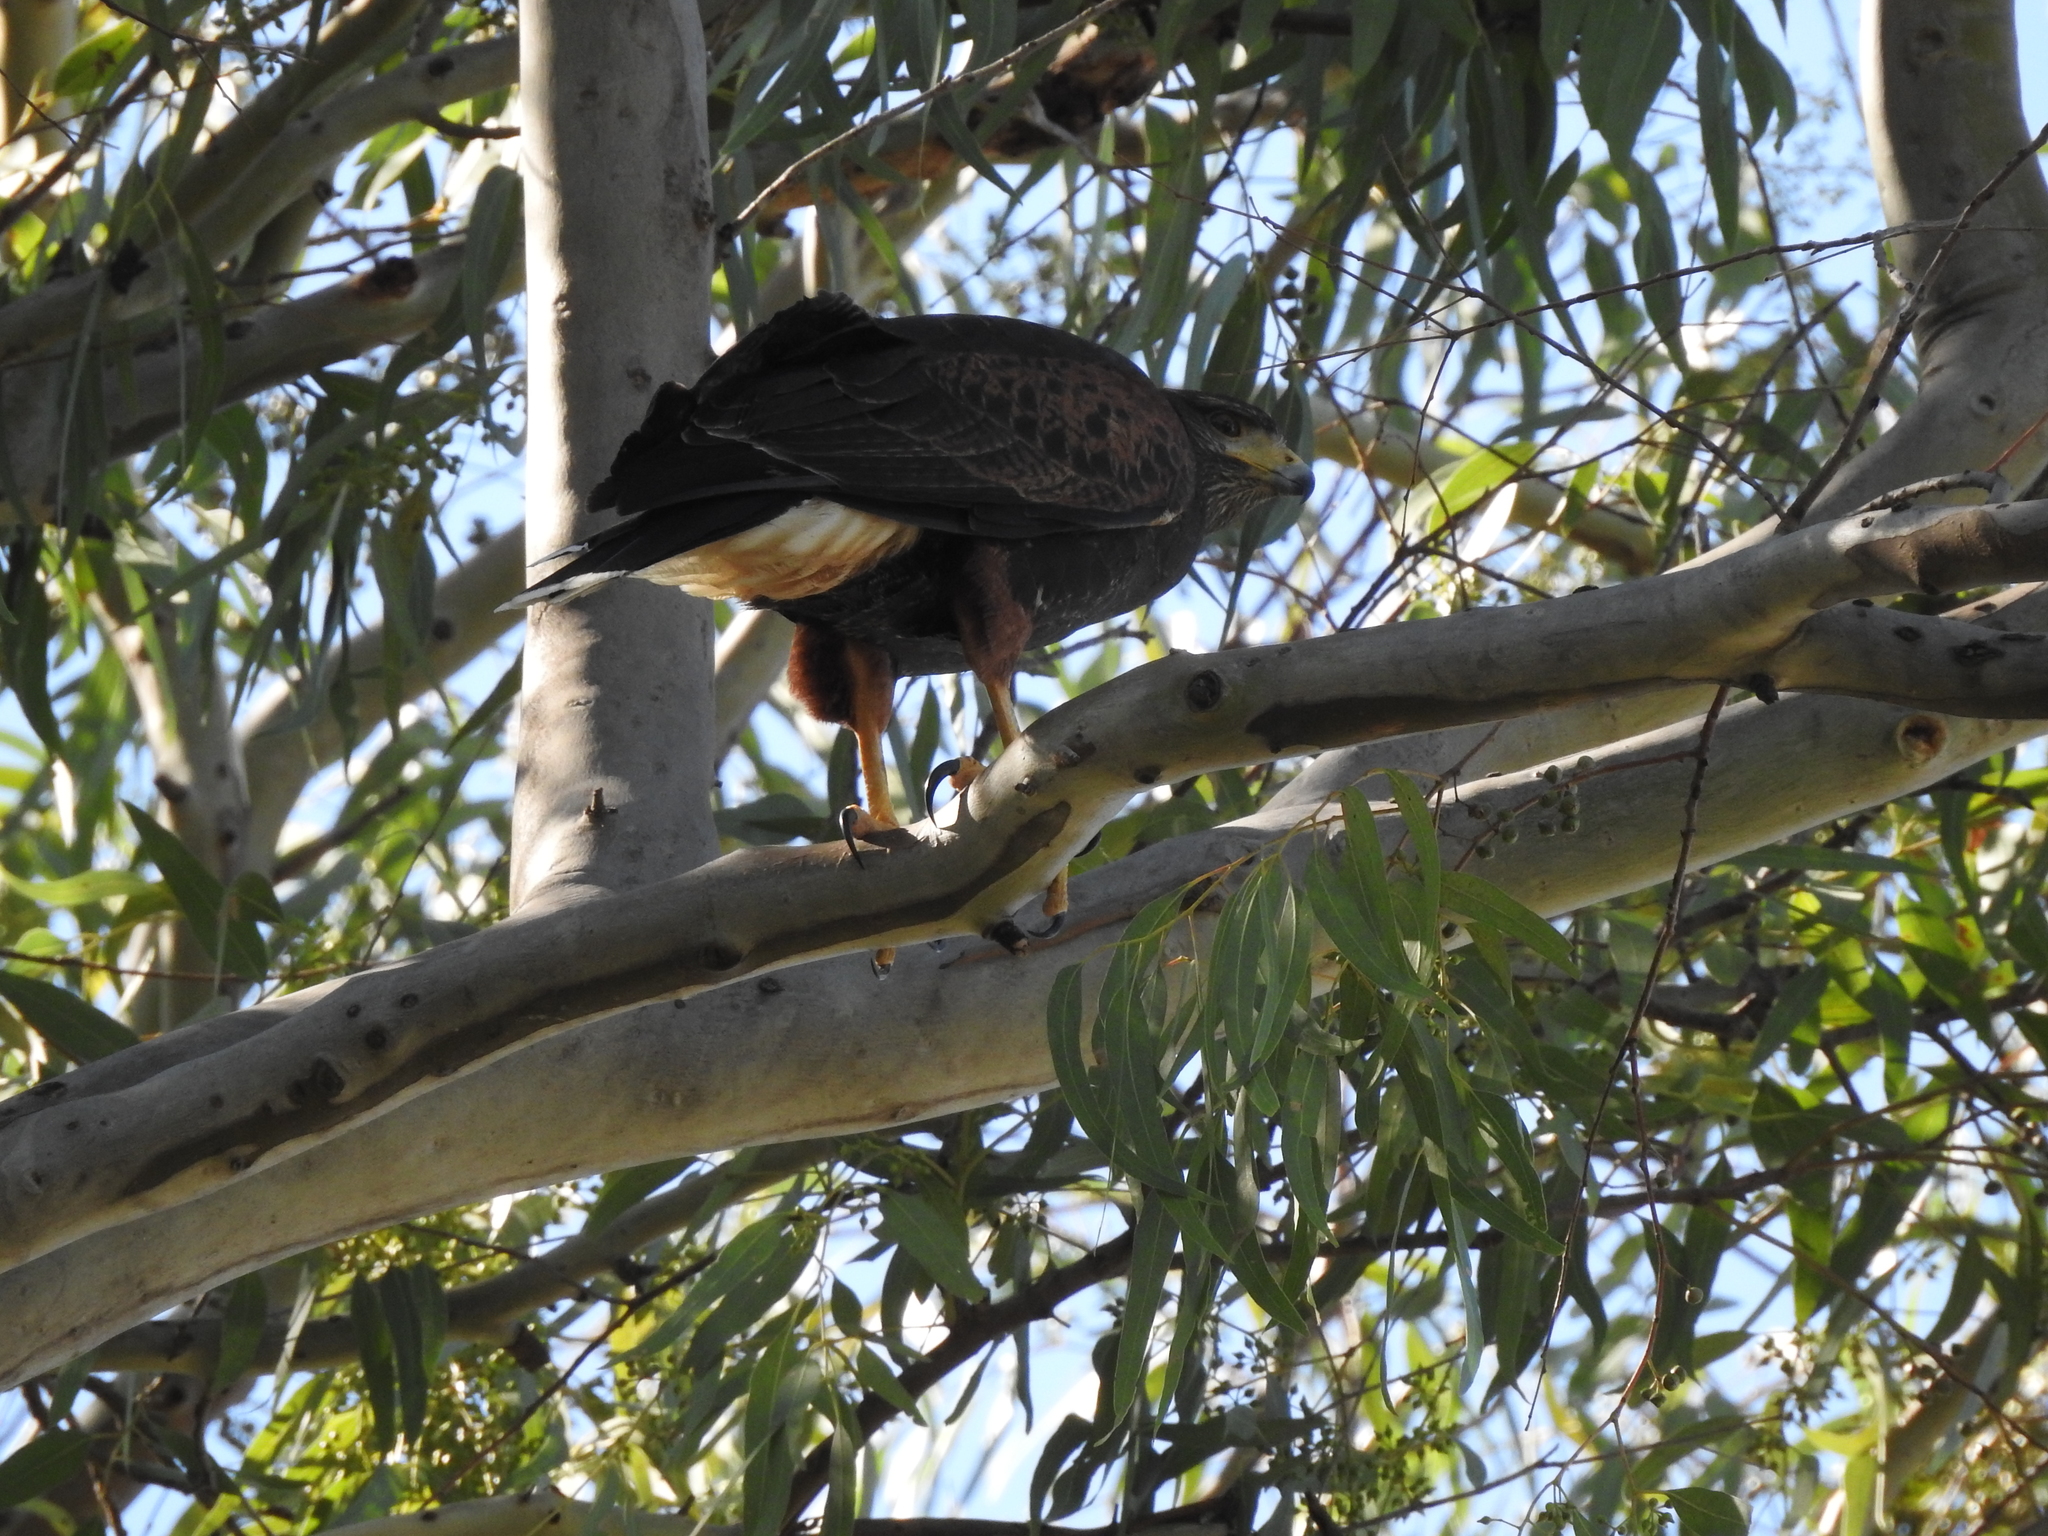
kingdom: Animalia
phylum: Chordata
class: Aves
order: Accipitriformes
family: Accipitridae
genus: Parabuteo
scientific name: Parabuteo unicinctus
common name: Harris's hawk
